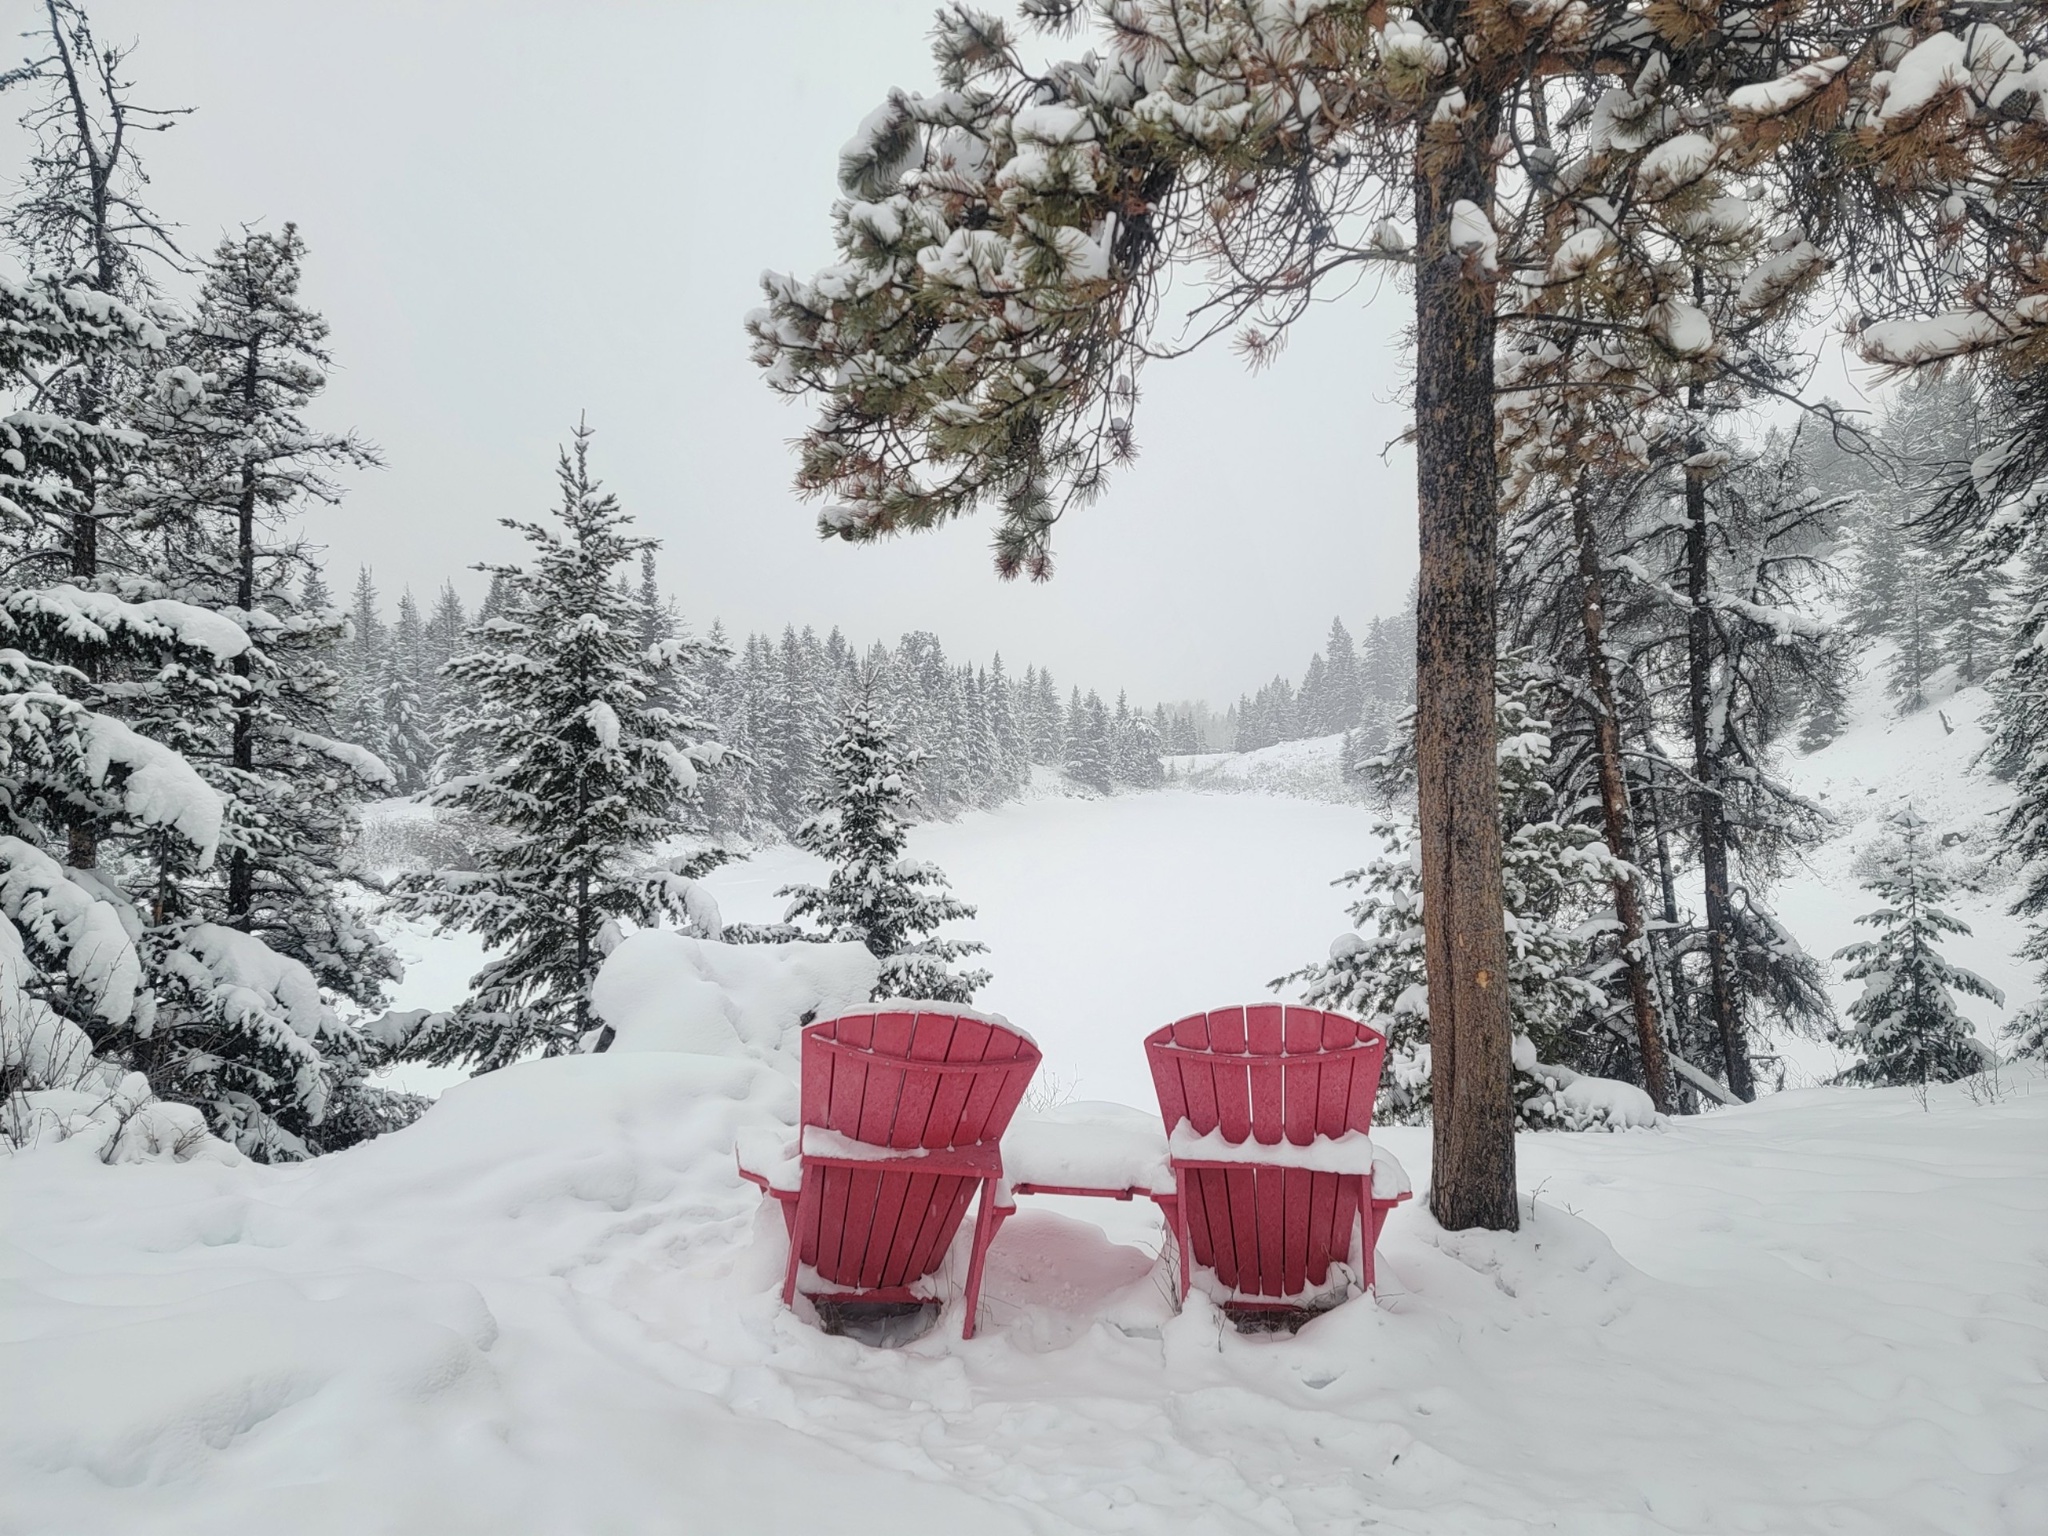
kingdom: Plantae
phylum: Tracheophyta
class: Pinopsida
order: Pinales
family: Pinaceae
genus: Pinus
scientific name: Pinus contorta
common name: Lodgepole pine
